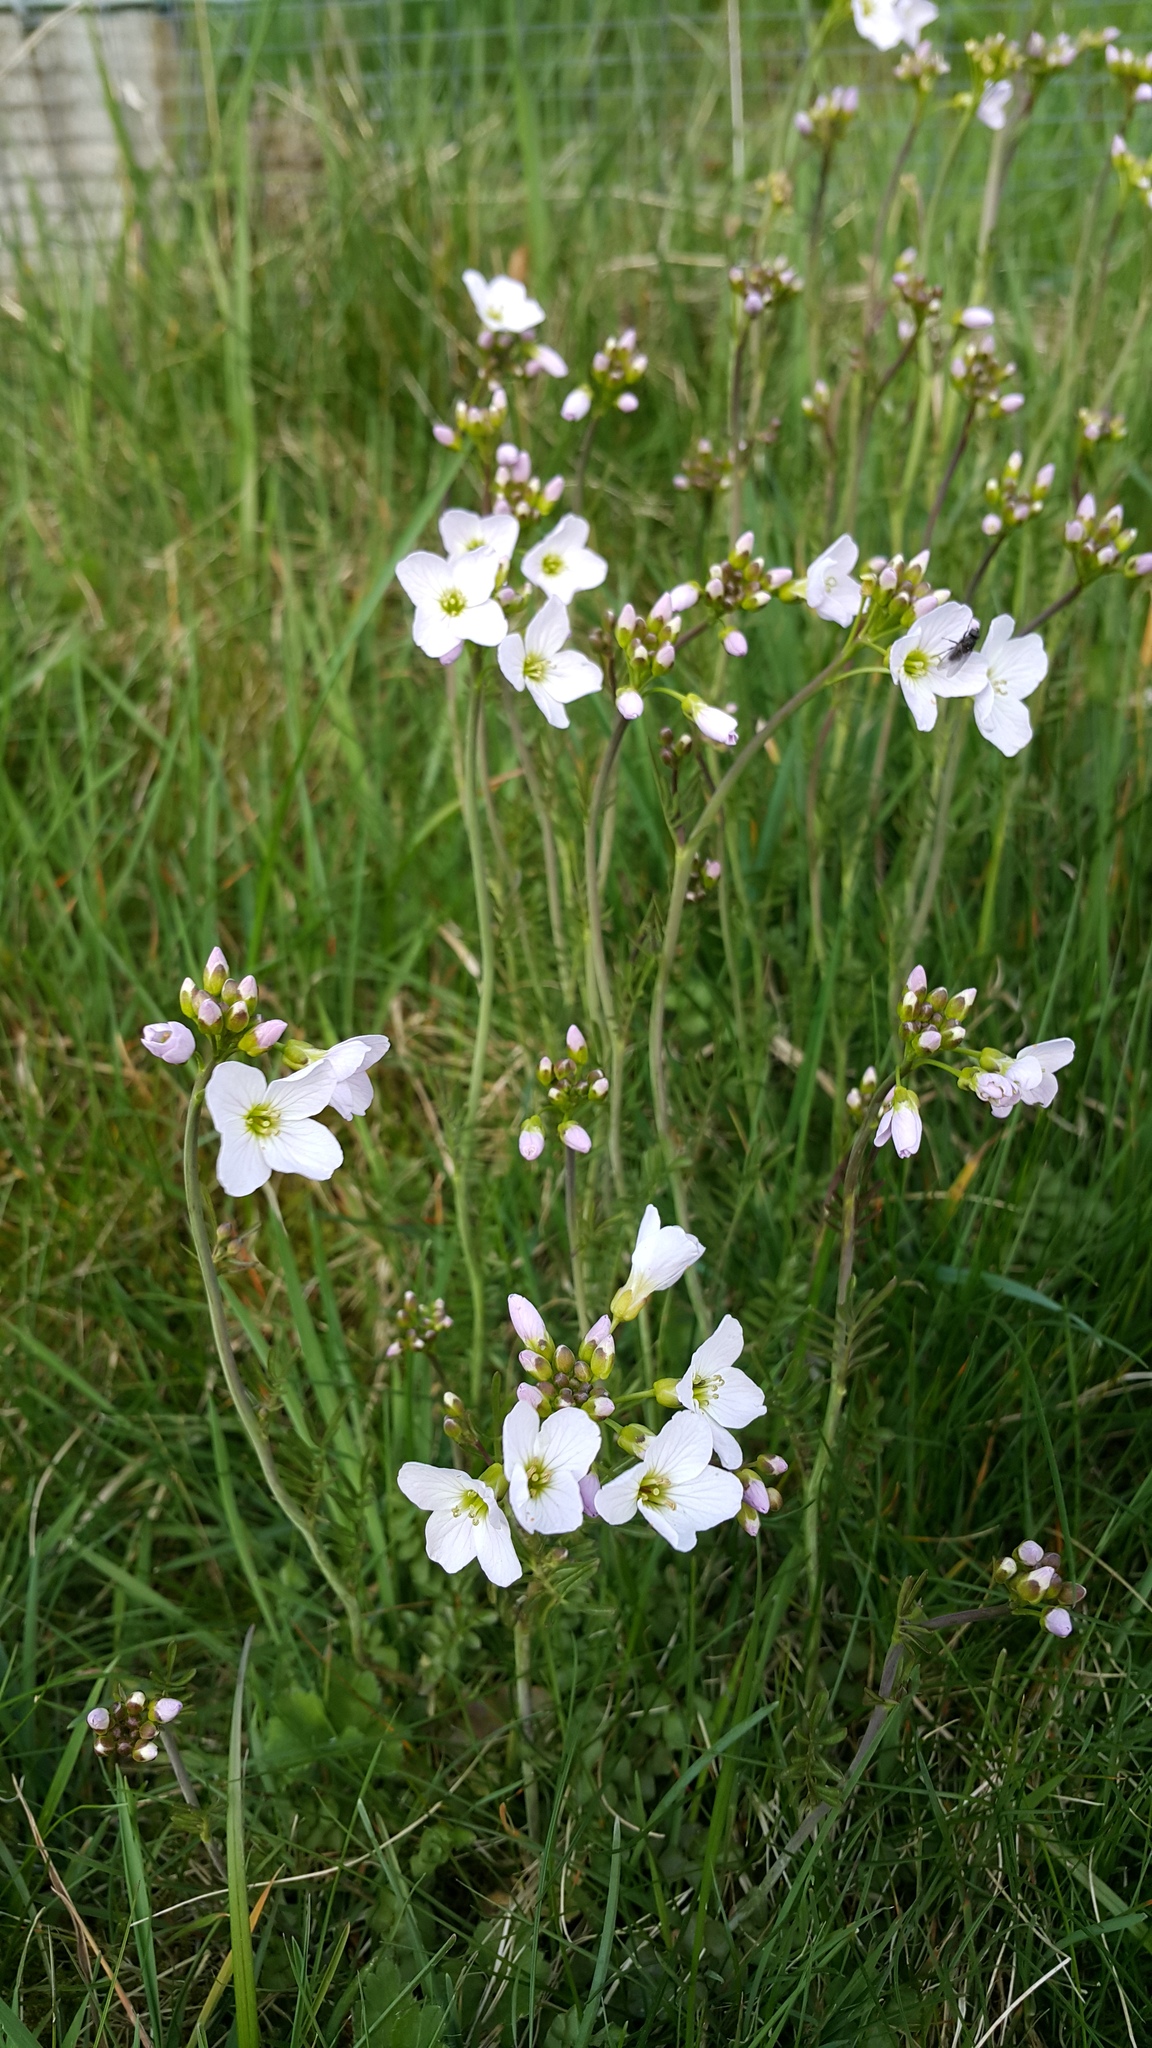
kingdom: Plantae
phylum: Tracheophyta
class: Magnoliopsida
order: Brassicales
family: Brassicaceae
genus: Cardamine
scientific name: Cardamine pratensis
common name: Cuckoo flower
